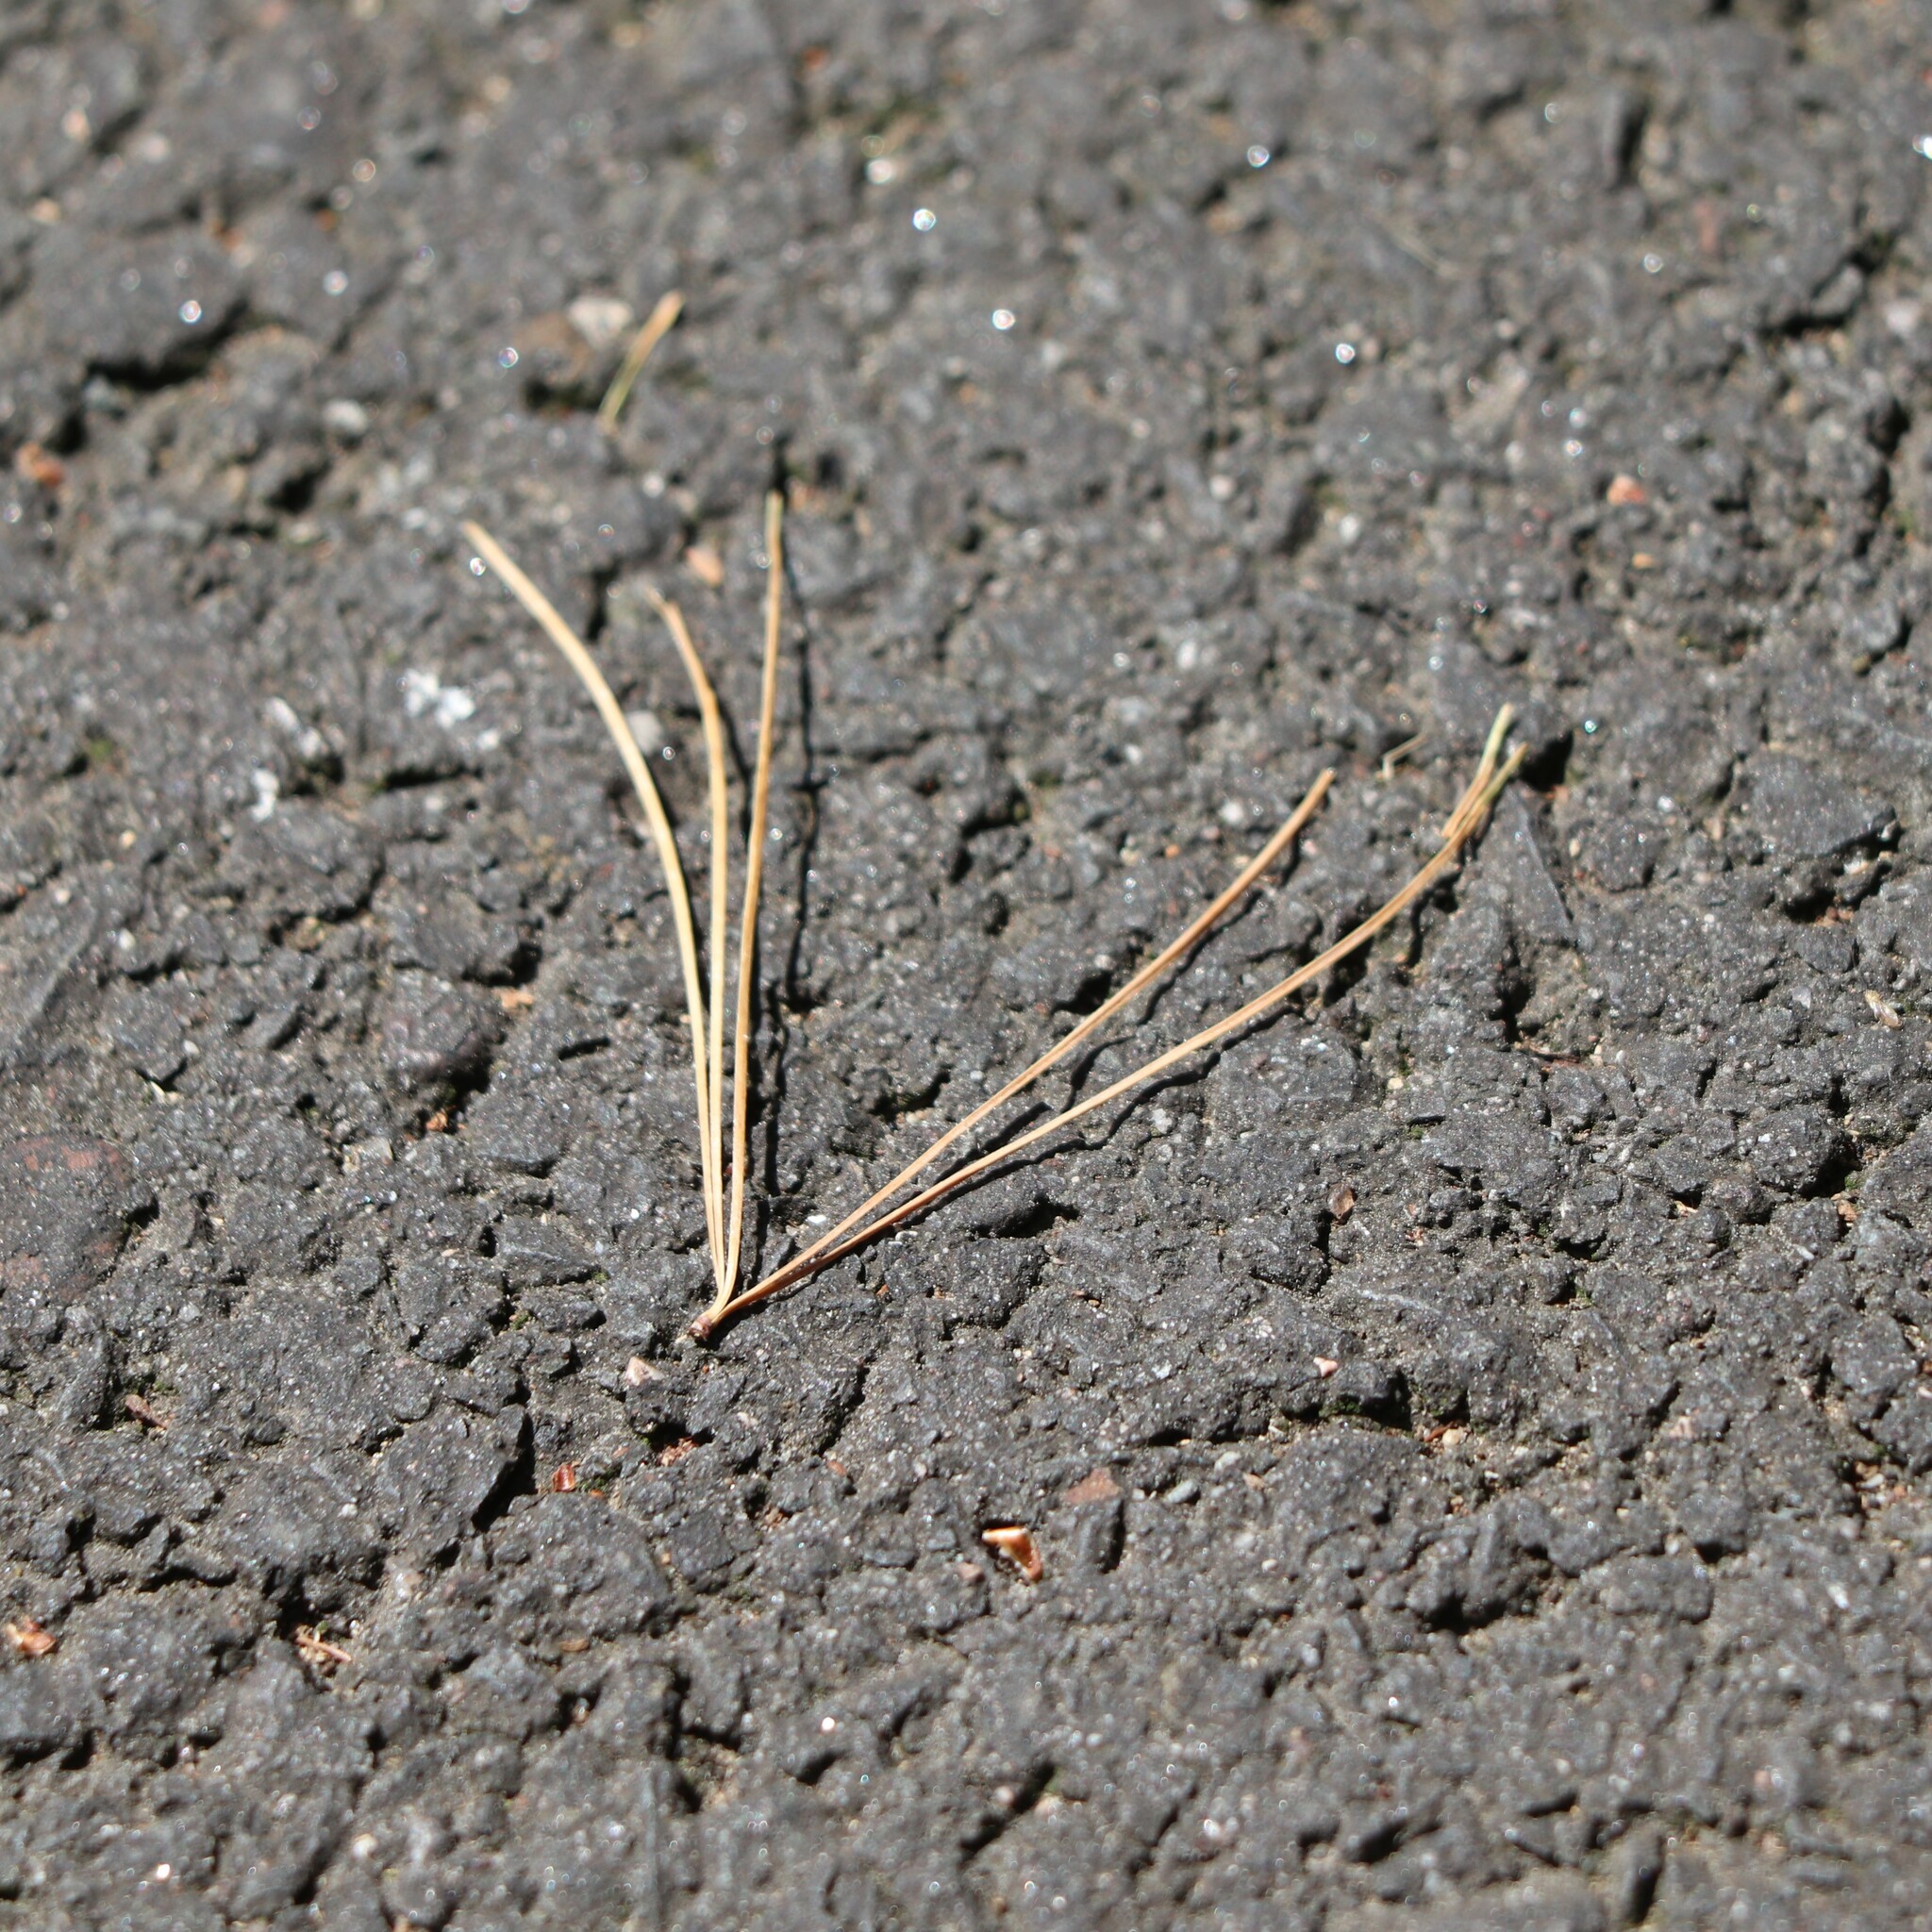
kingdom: Plantae
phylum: Tracheophyta
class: Pinopsida
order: Pinales
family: Pinaceae
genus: Pinus
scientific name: Pinus strobus
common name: Weymouth pine
